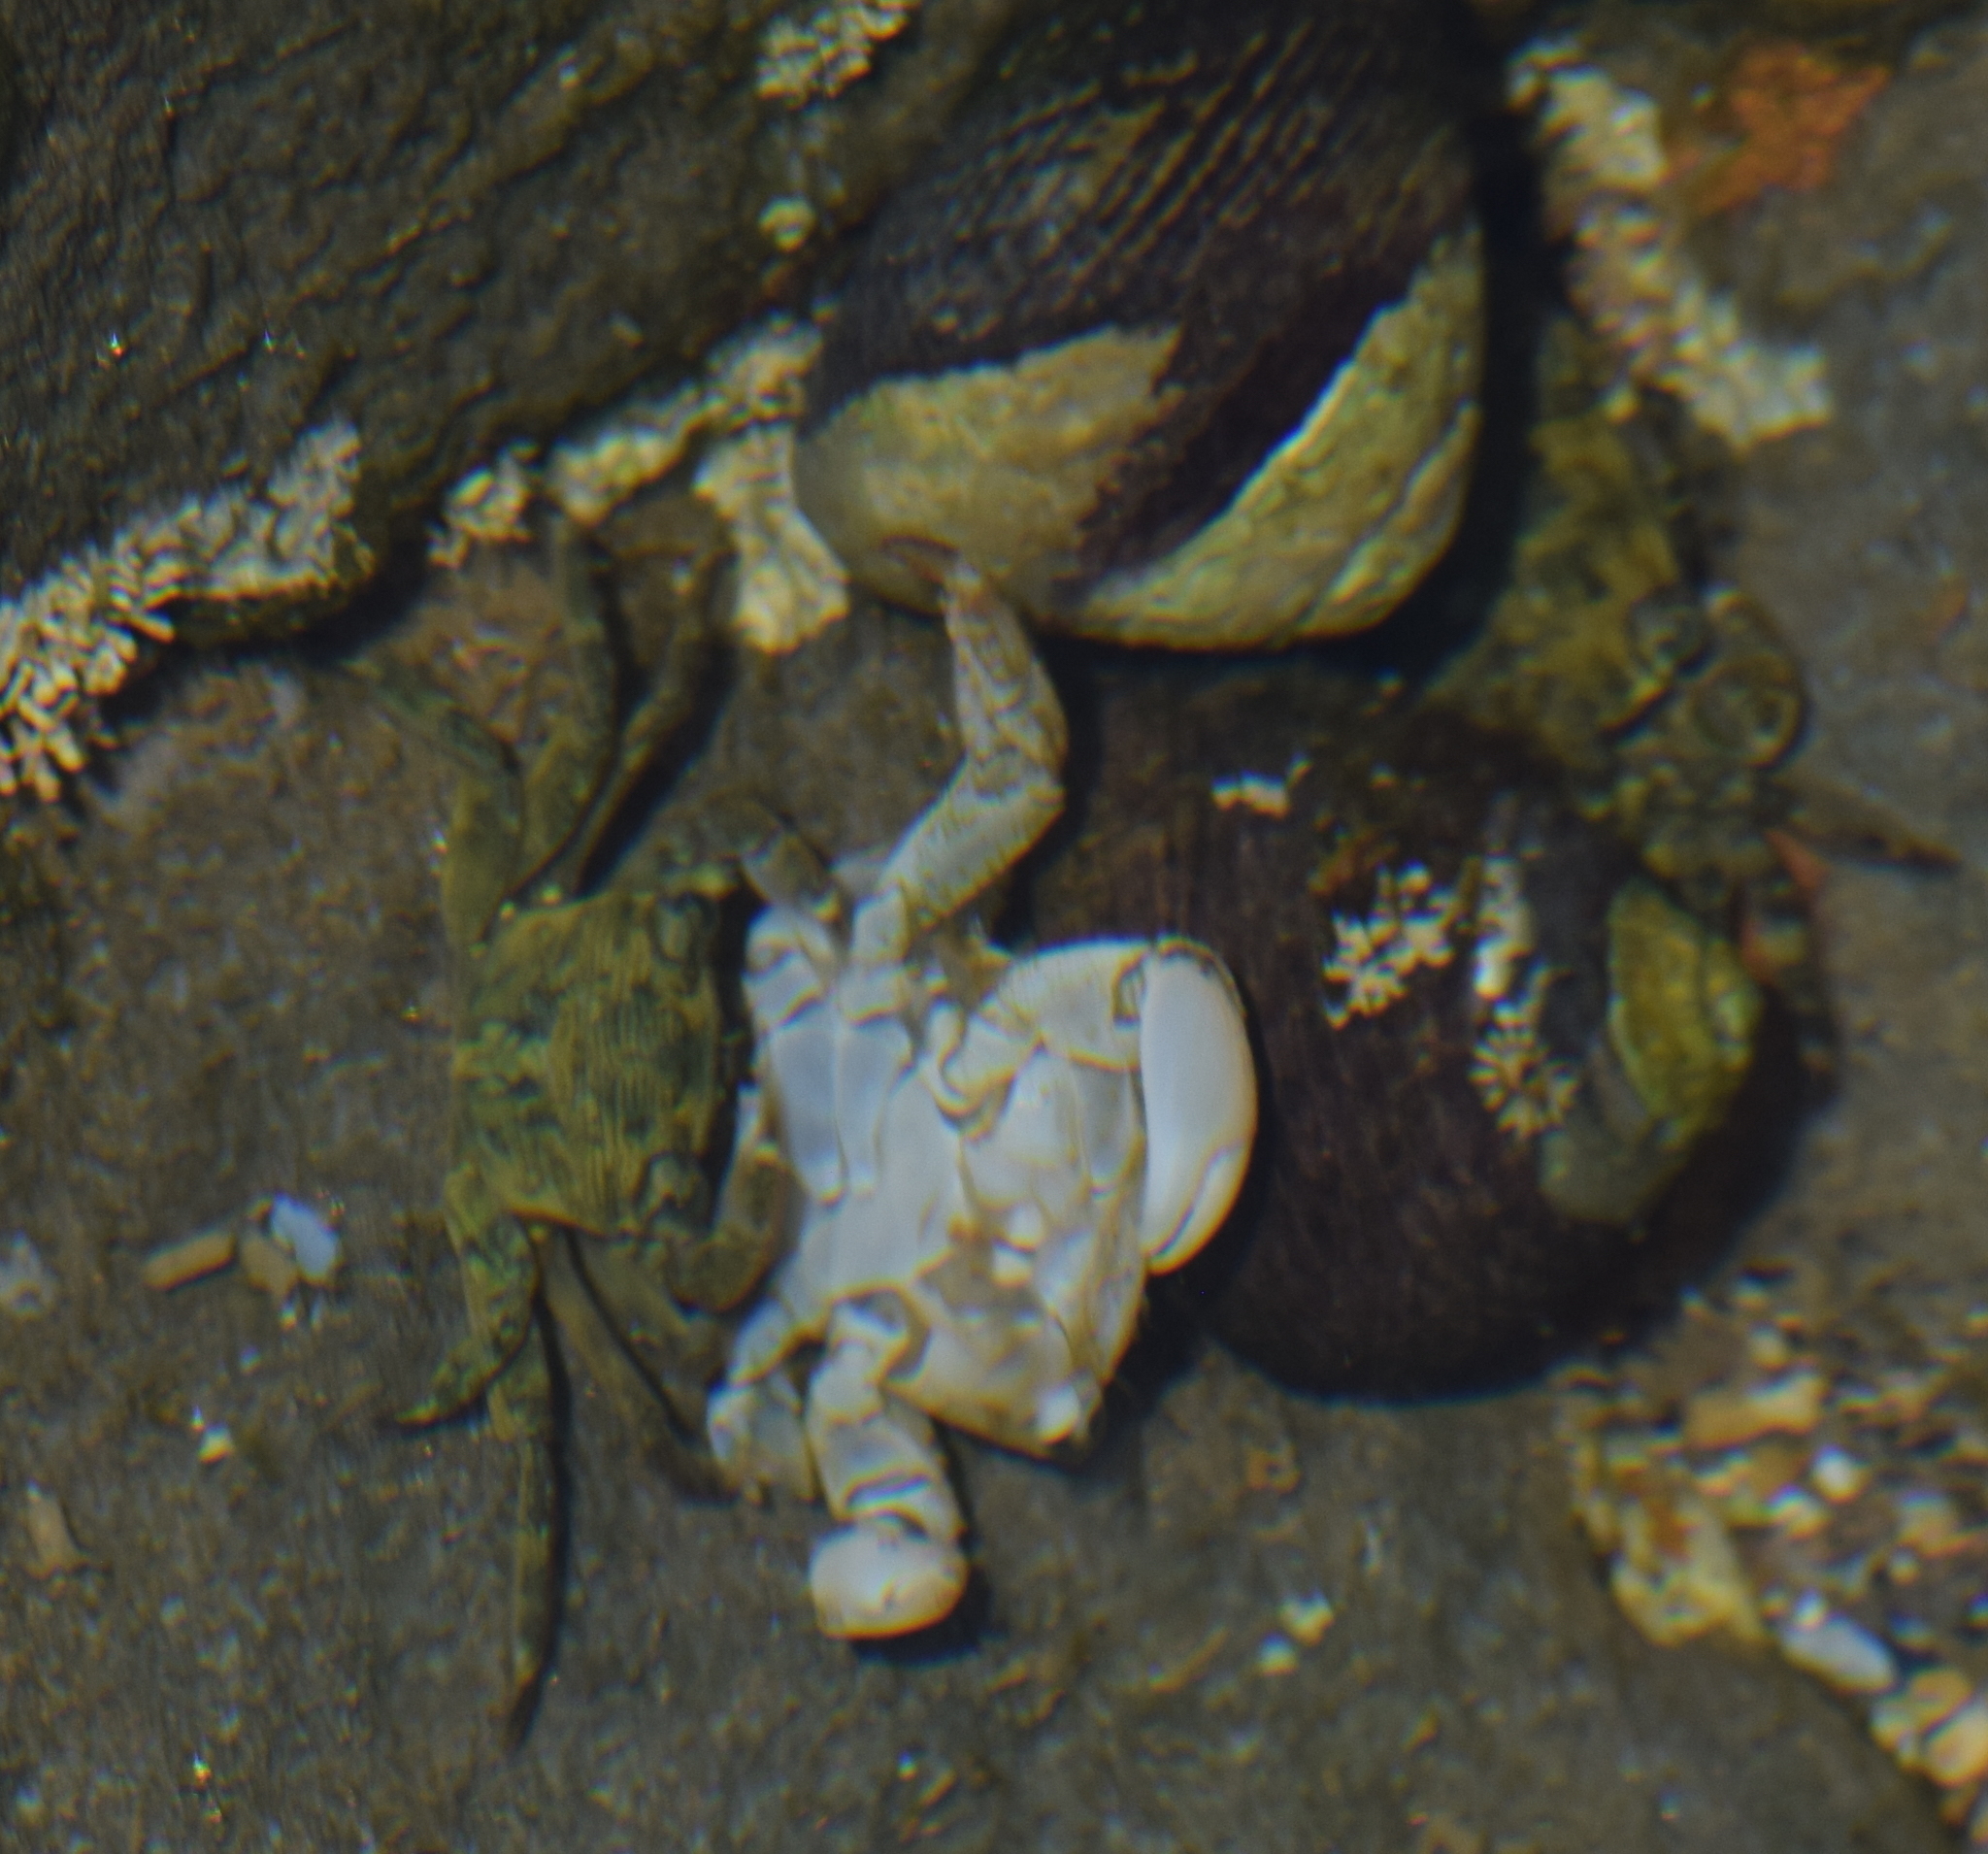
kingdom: Animalia
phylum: Arthropoda
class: Malacostraca
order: Decapoda
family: Grapsidae
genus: Pachygrapsus
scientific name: Pachygrapsus crassipes
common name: Striped shore crab
